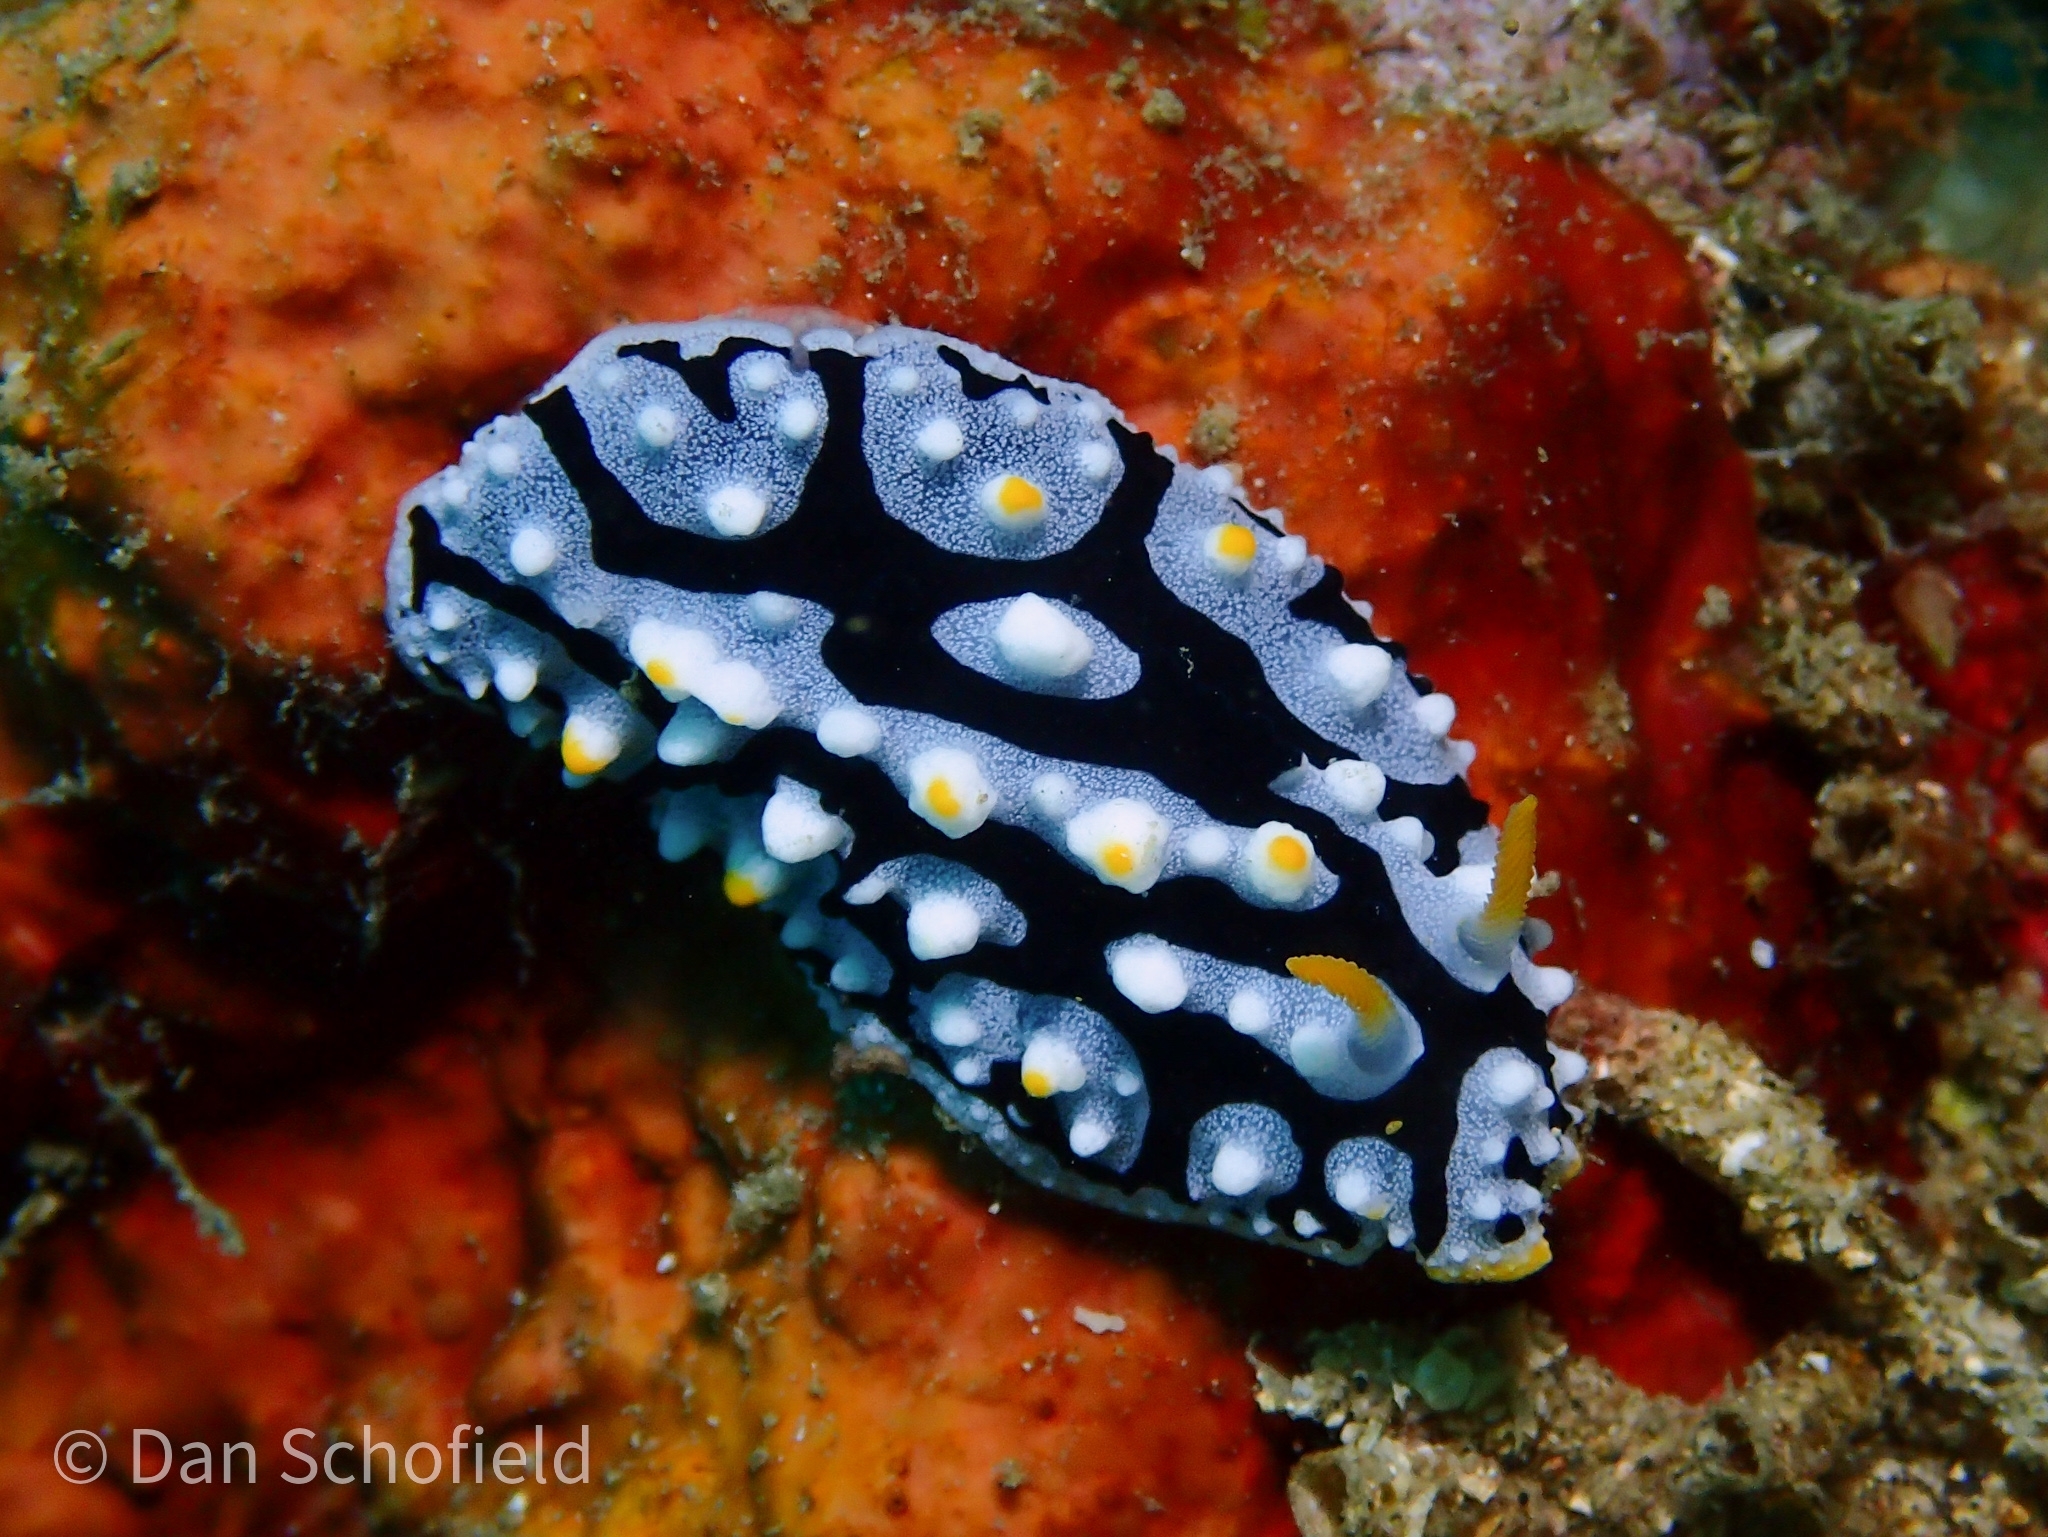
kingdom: Animalia
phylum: Mollusca
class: Gastropoda
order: Nudibranchia
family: Phyllidiidae
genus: Phyllidia
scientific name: Phyllidia exquisita
